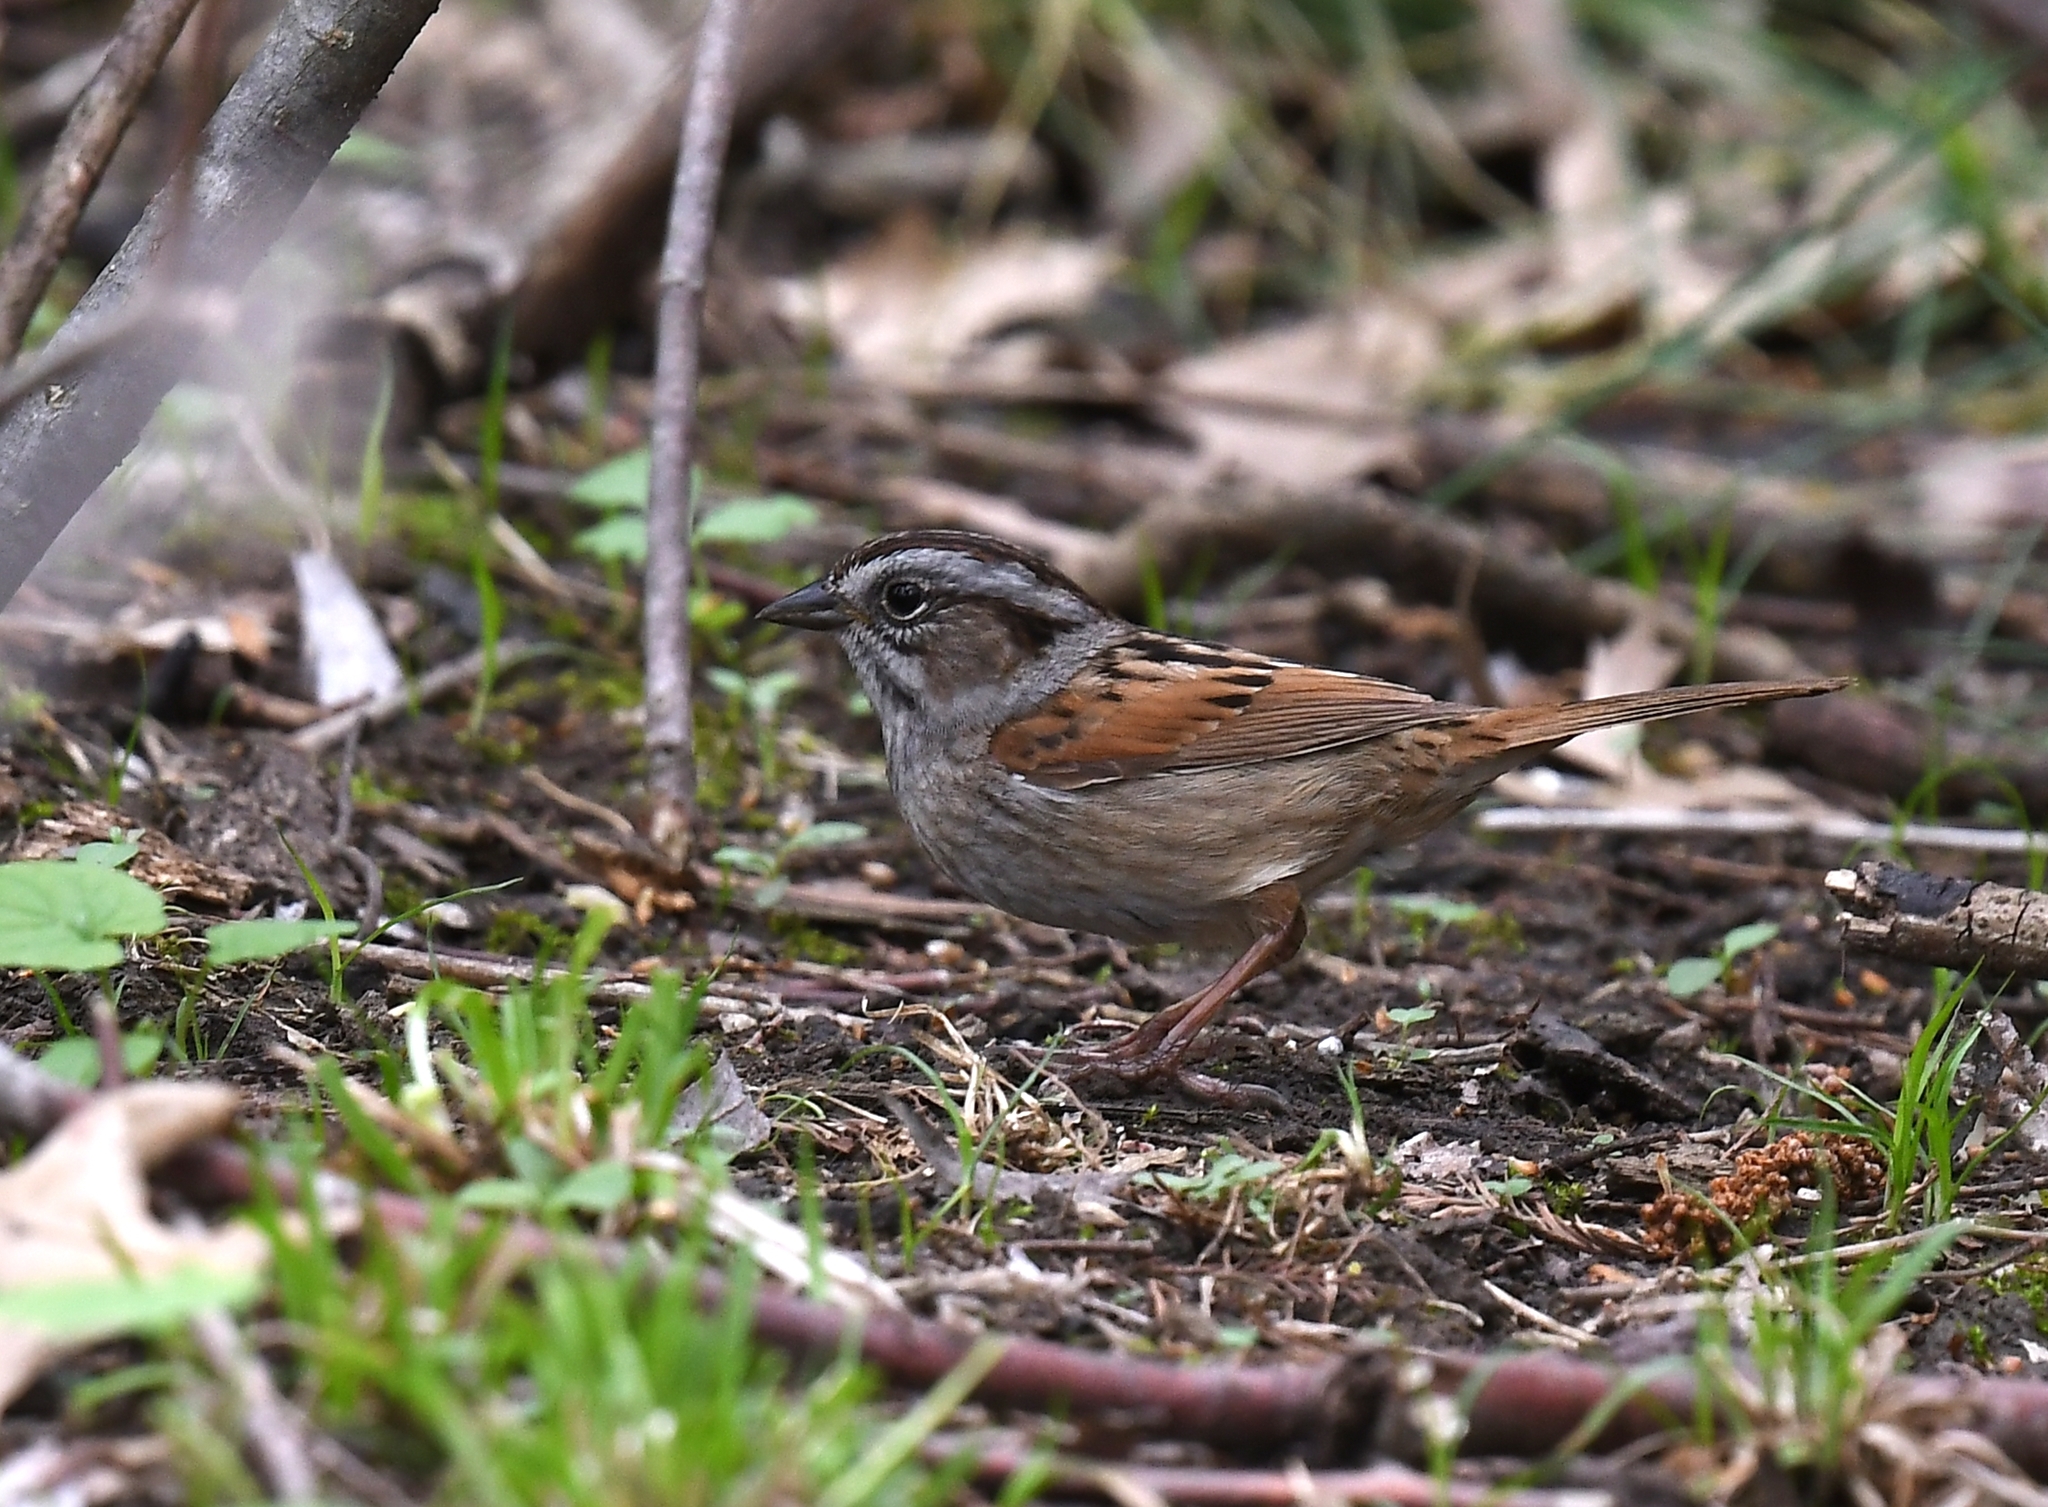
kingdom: Animalia
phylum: Chordata
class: Aves
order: Passeriformes
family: Passerellidae
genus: Melospiza
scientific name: Melospiza georgiana
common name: Swamp sparrow
